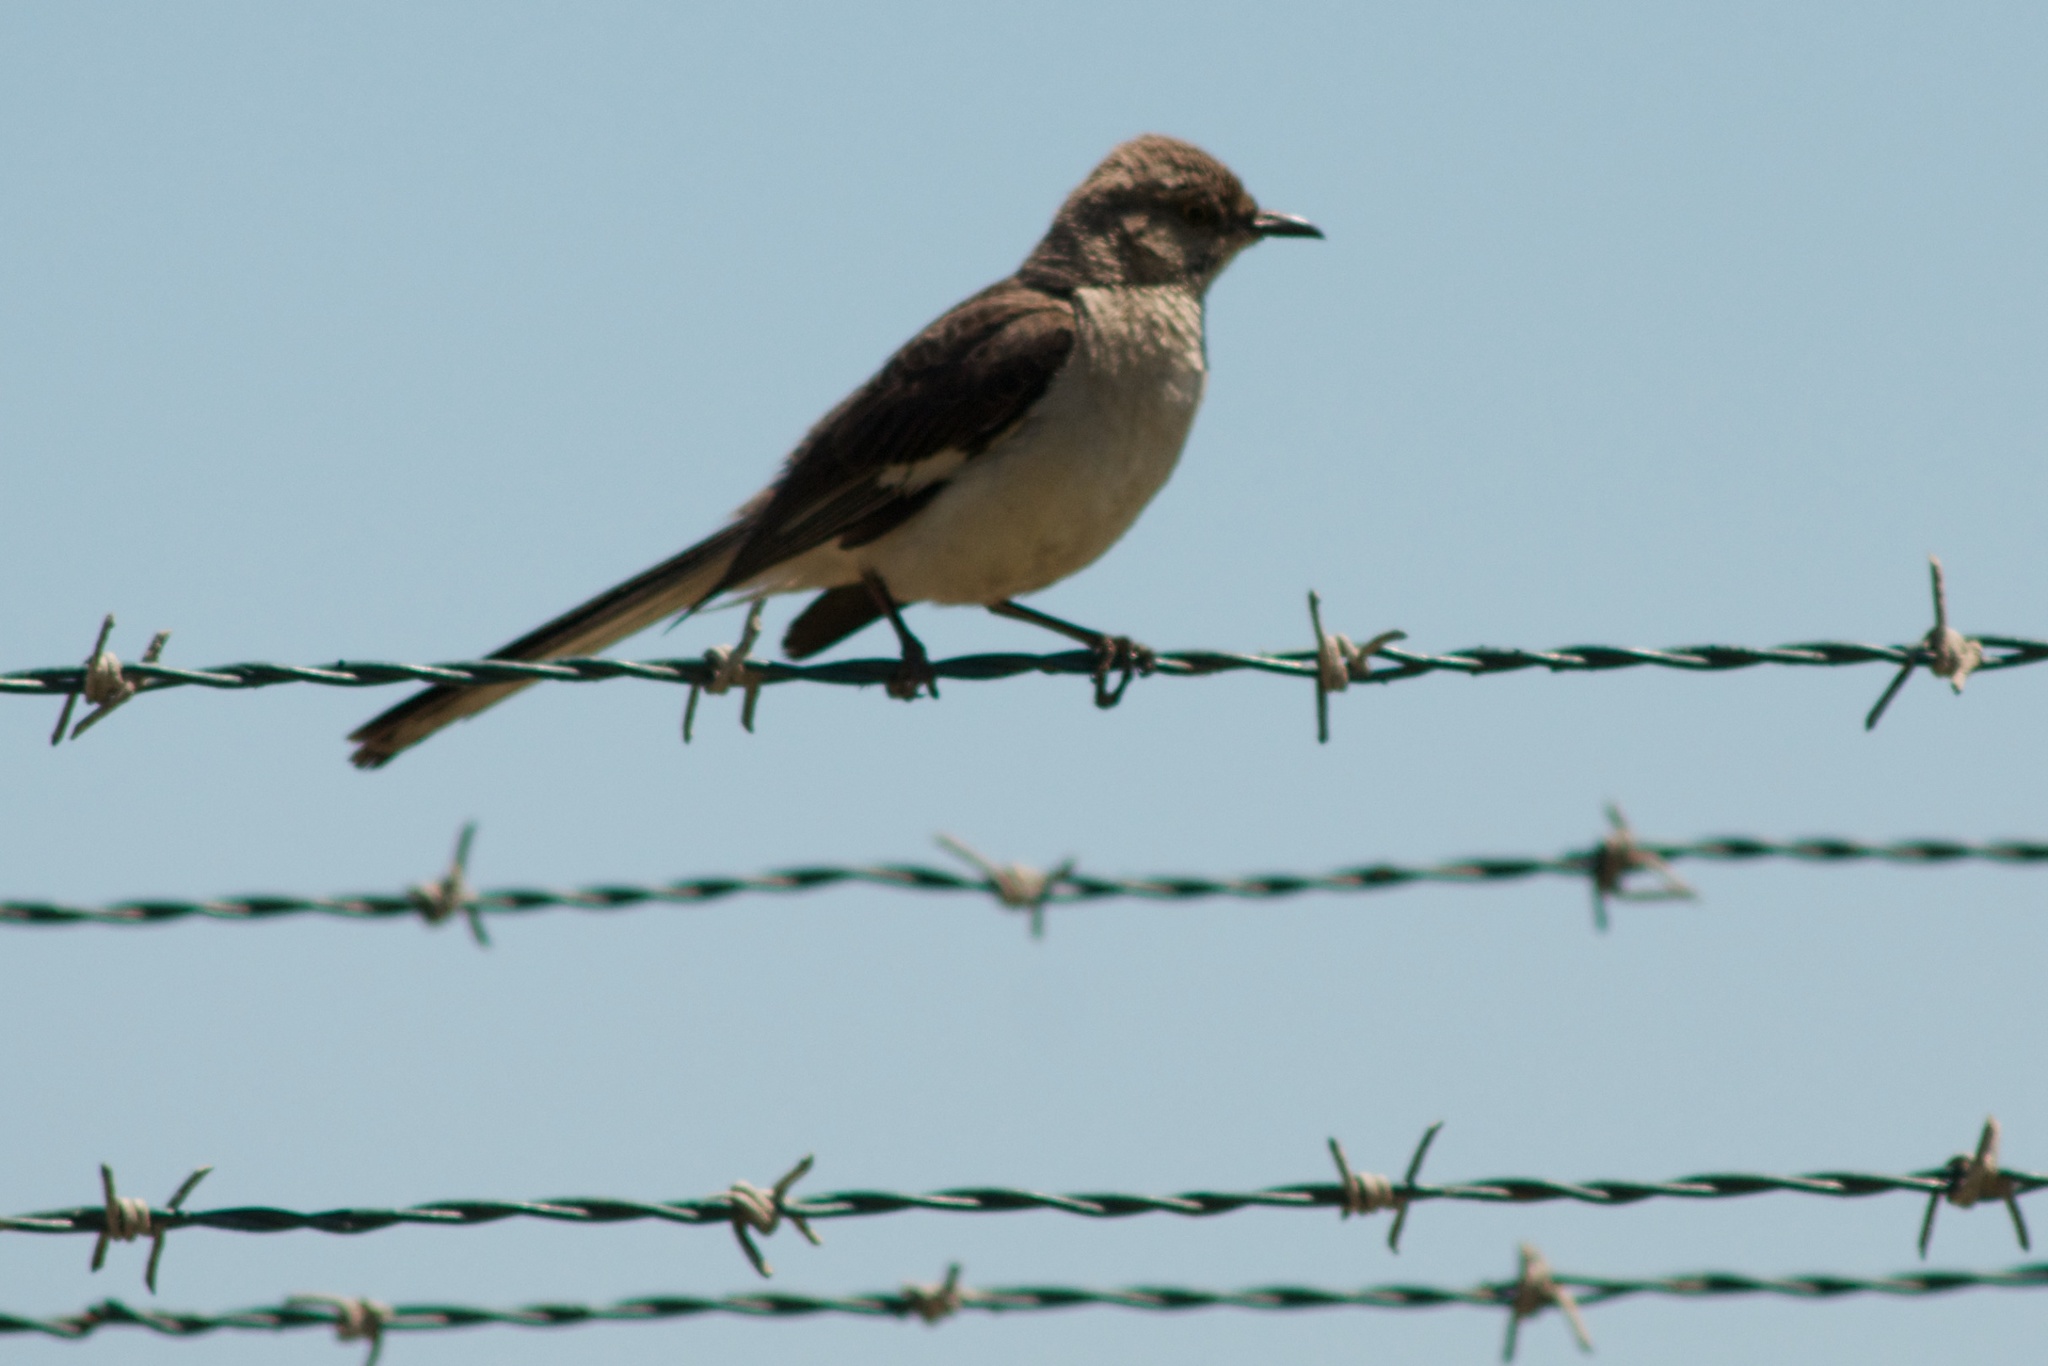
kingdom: Animalia
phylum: Chordata
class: Aves
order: Passeriformes
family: Mimidae
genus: Mimus
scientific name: Mimus polyglottos
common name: Northern mockingbird
